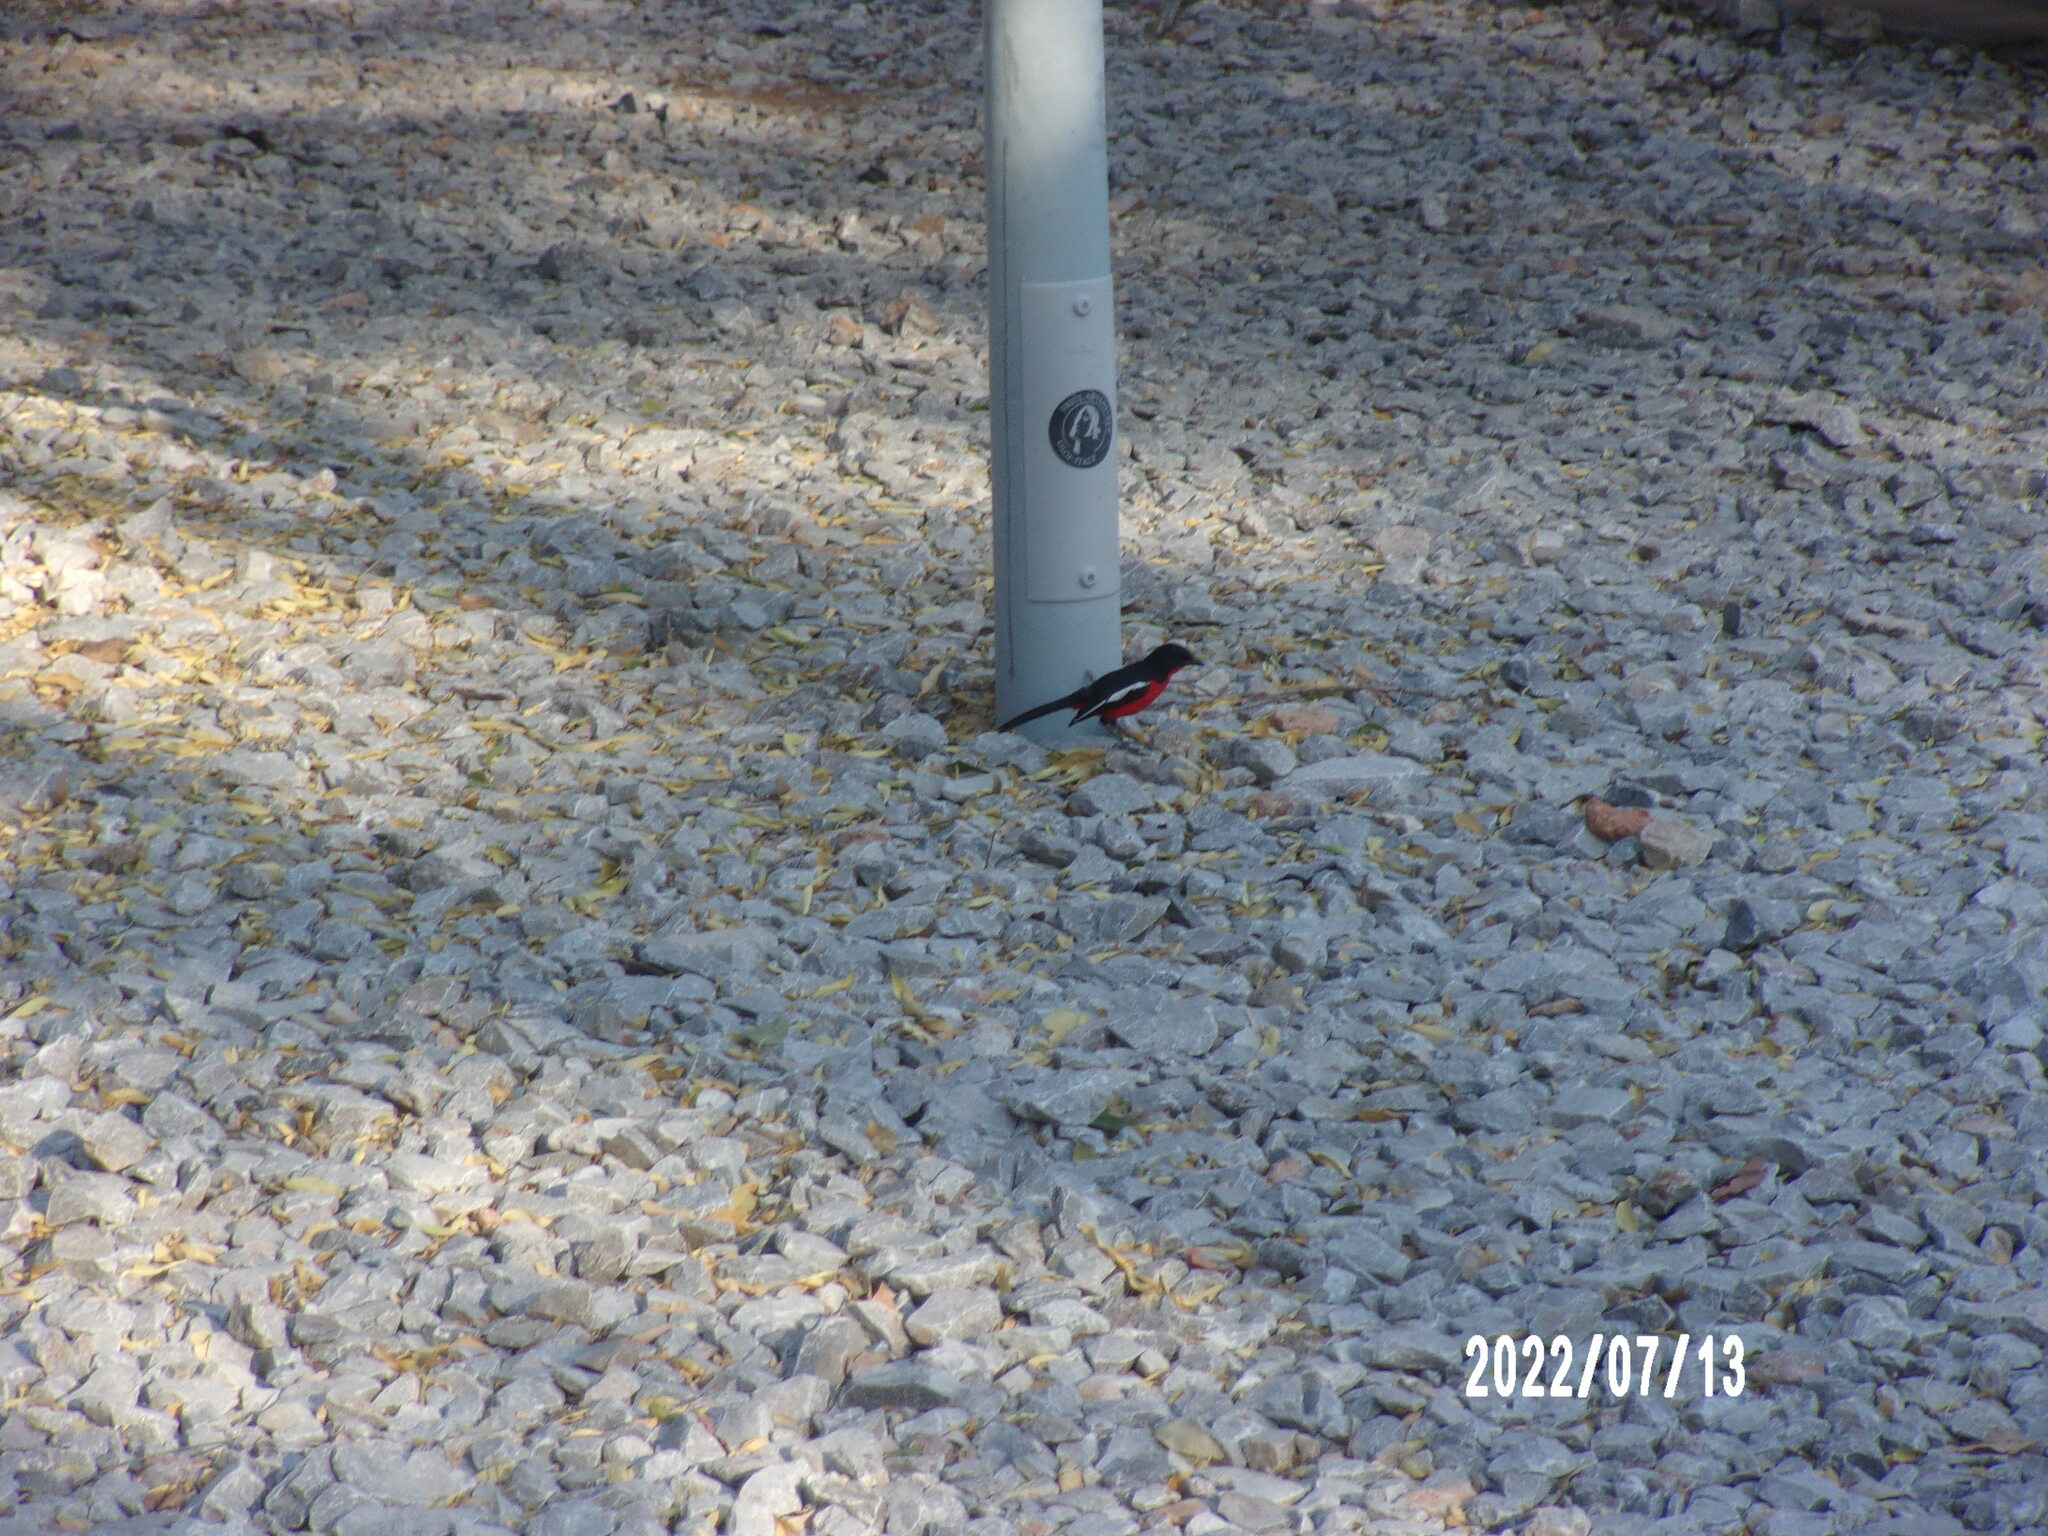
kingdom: Animalia
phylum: Chordata
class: Aves
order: Passeriformes
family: Malaconotidae
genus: Laniarius
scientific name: Laniarius atrococcineus
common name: Crimson-breasted shrike
